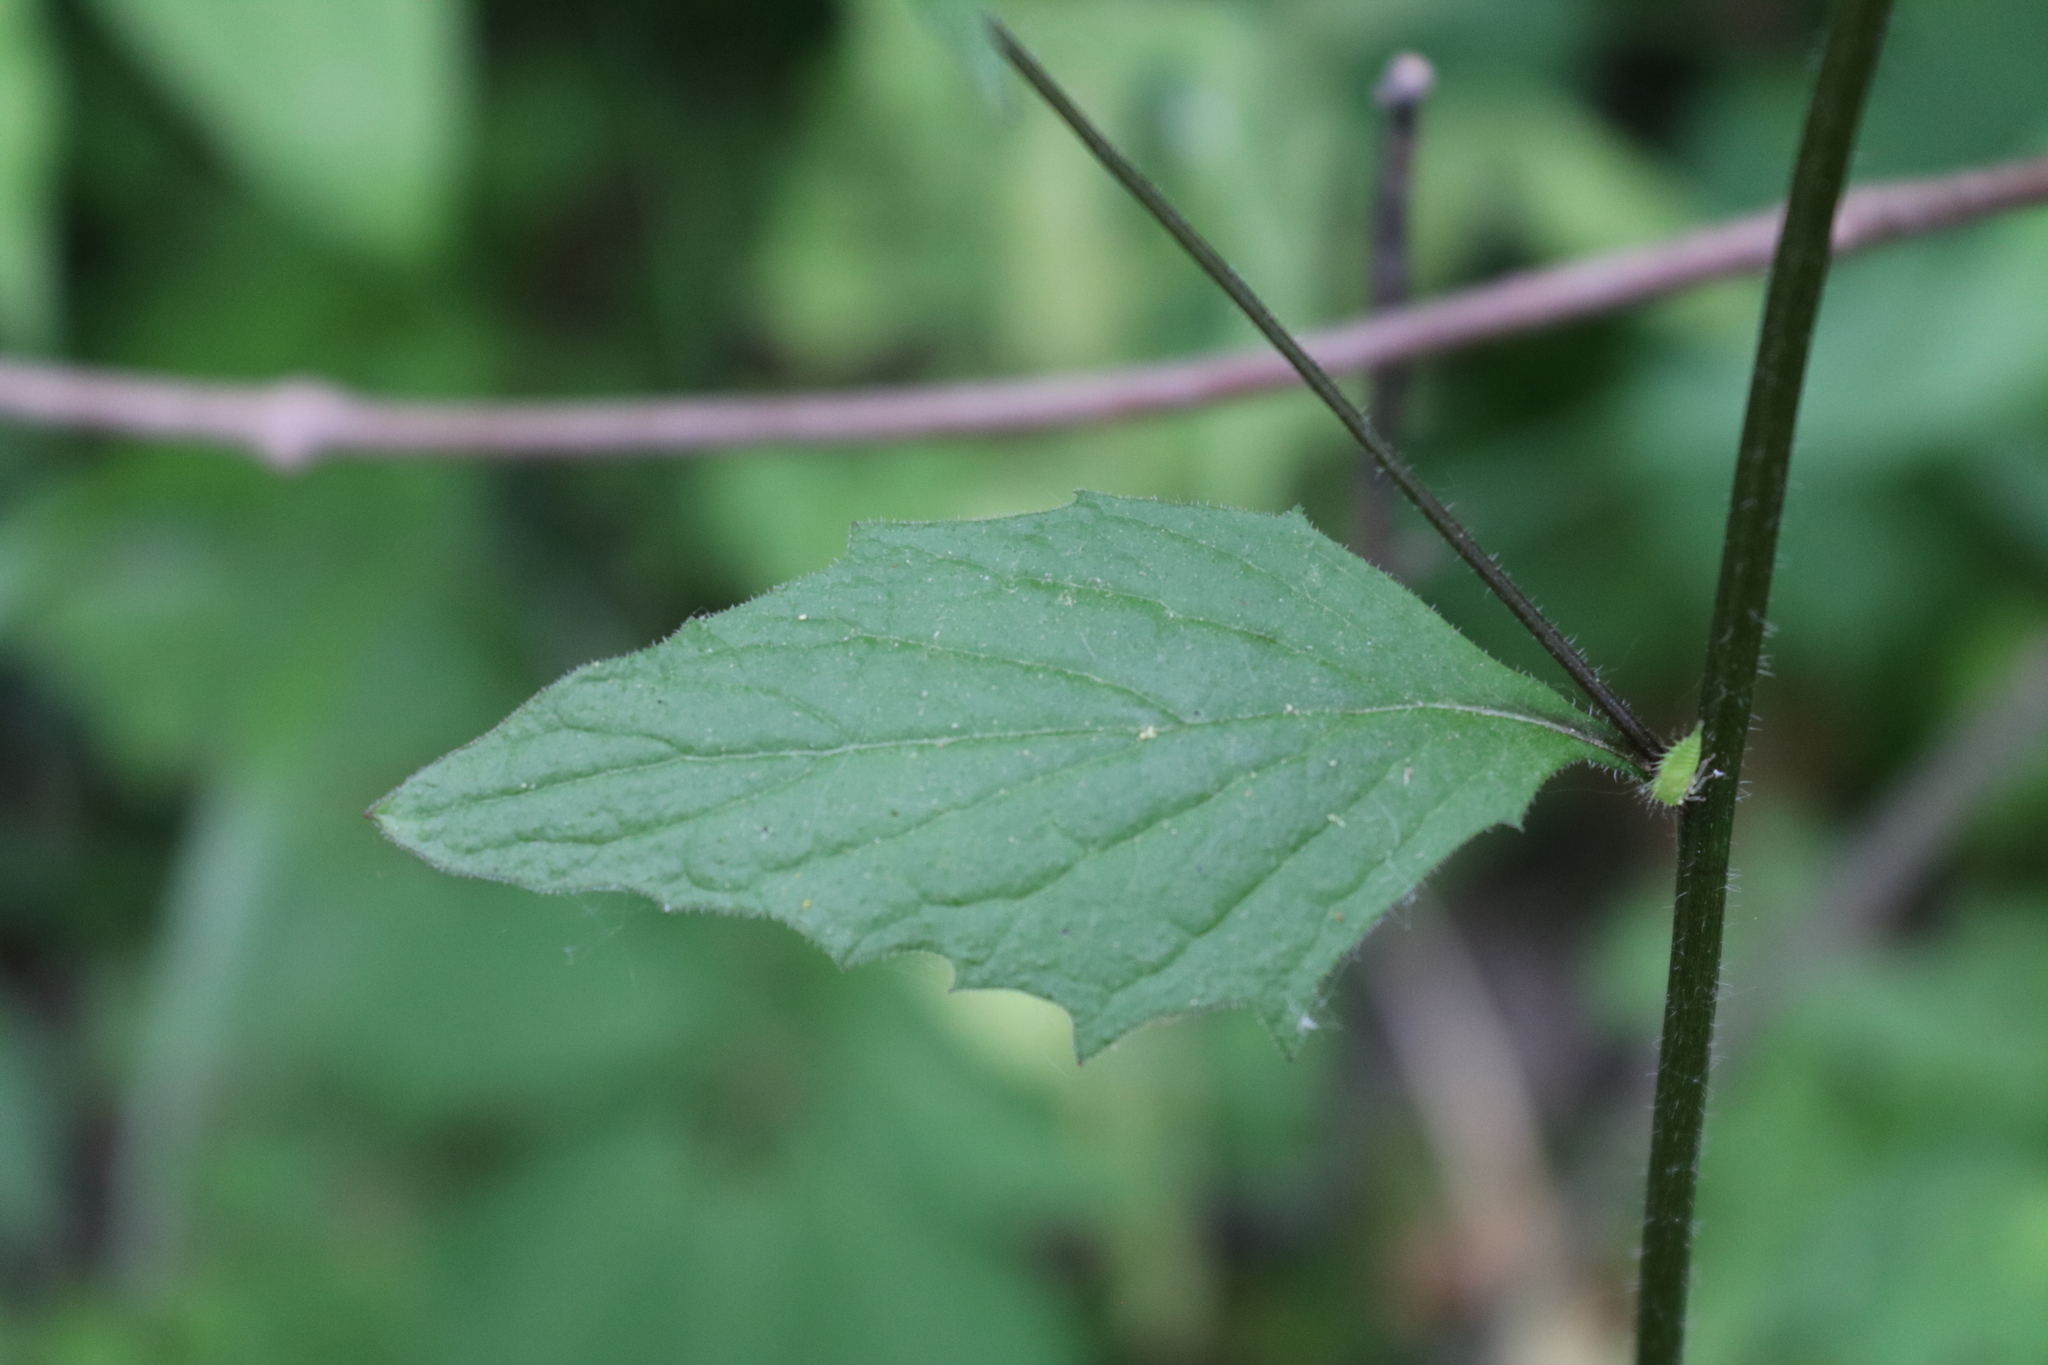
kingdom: Plantae
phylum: Tracheophyta
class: Magnoliopsida
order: Asterales
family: Asteraceae
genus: Lapsana
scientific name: Lapsana communis
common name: Nipplewort
